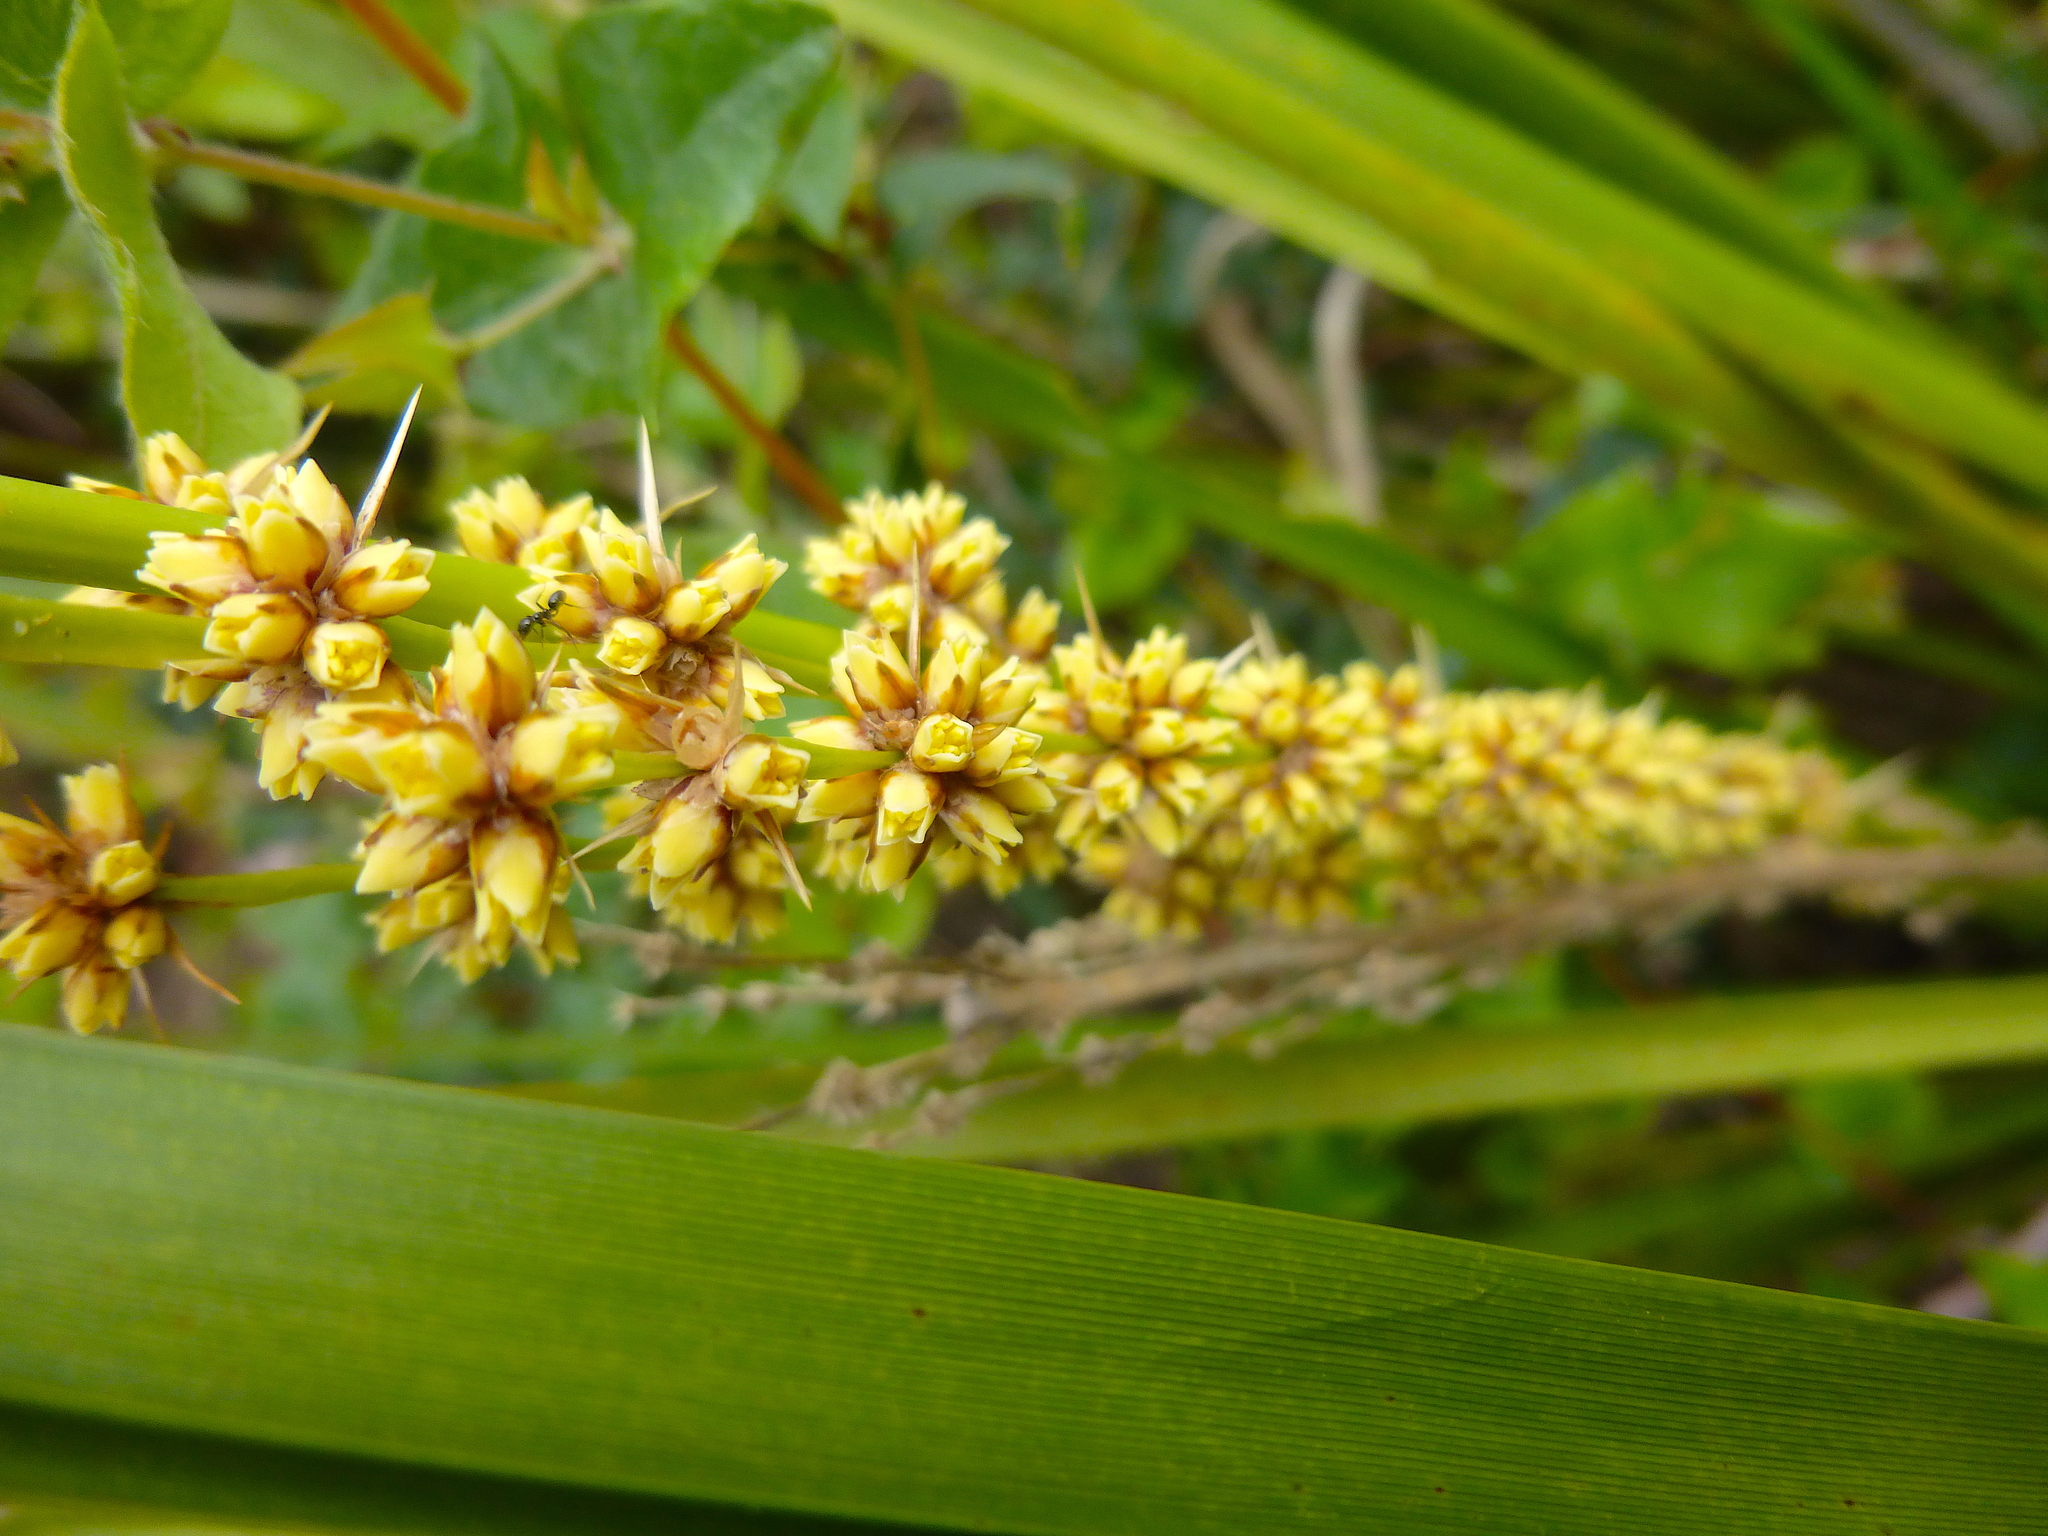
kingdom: Plantae
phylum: Tracheophyta
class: Liliopsida
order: Asparagales
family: Asparagaceae
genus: Lomandra
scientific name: Lomandra longifolia
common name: Longleaf mat-rush
